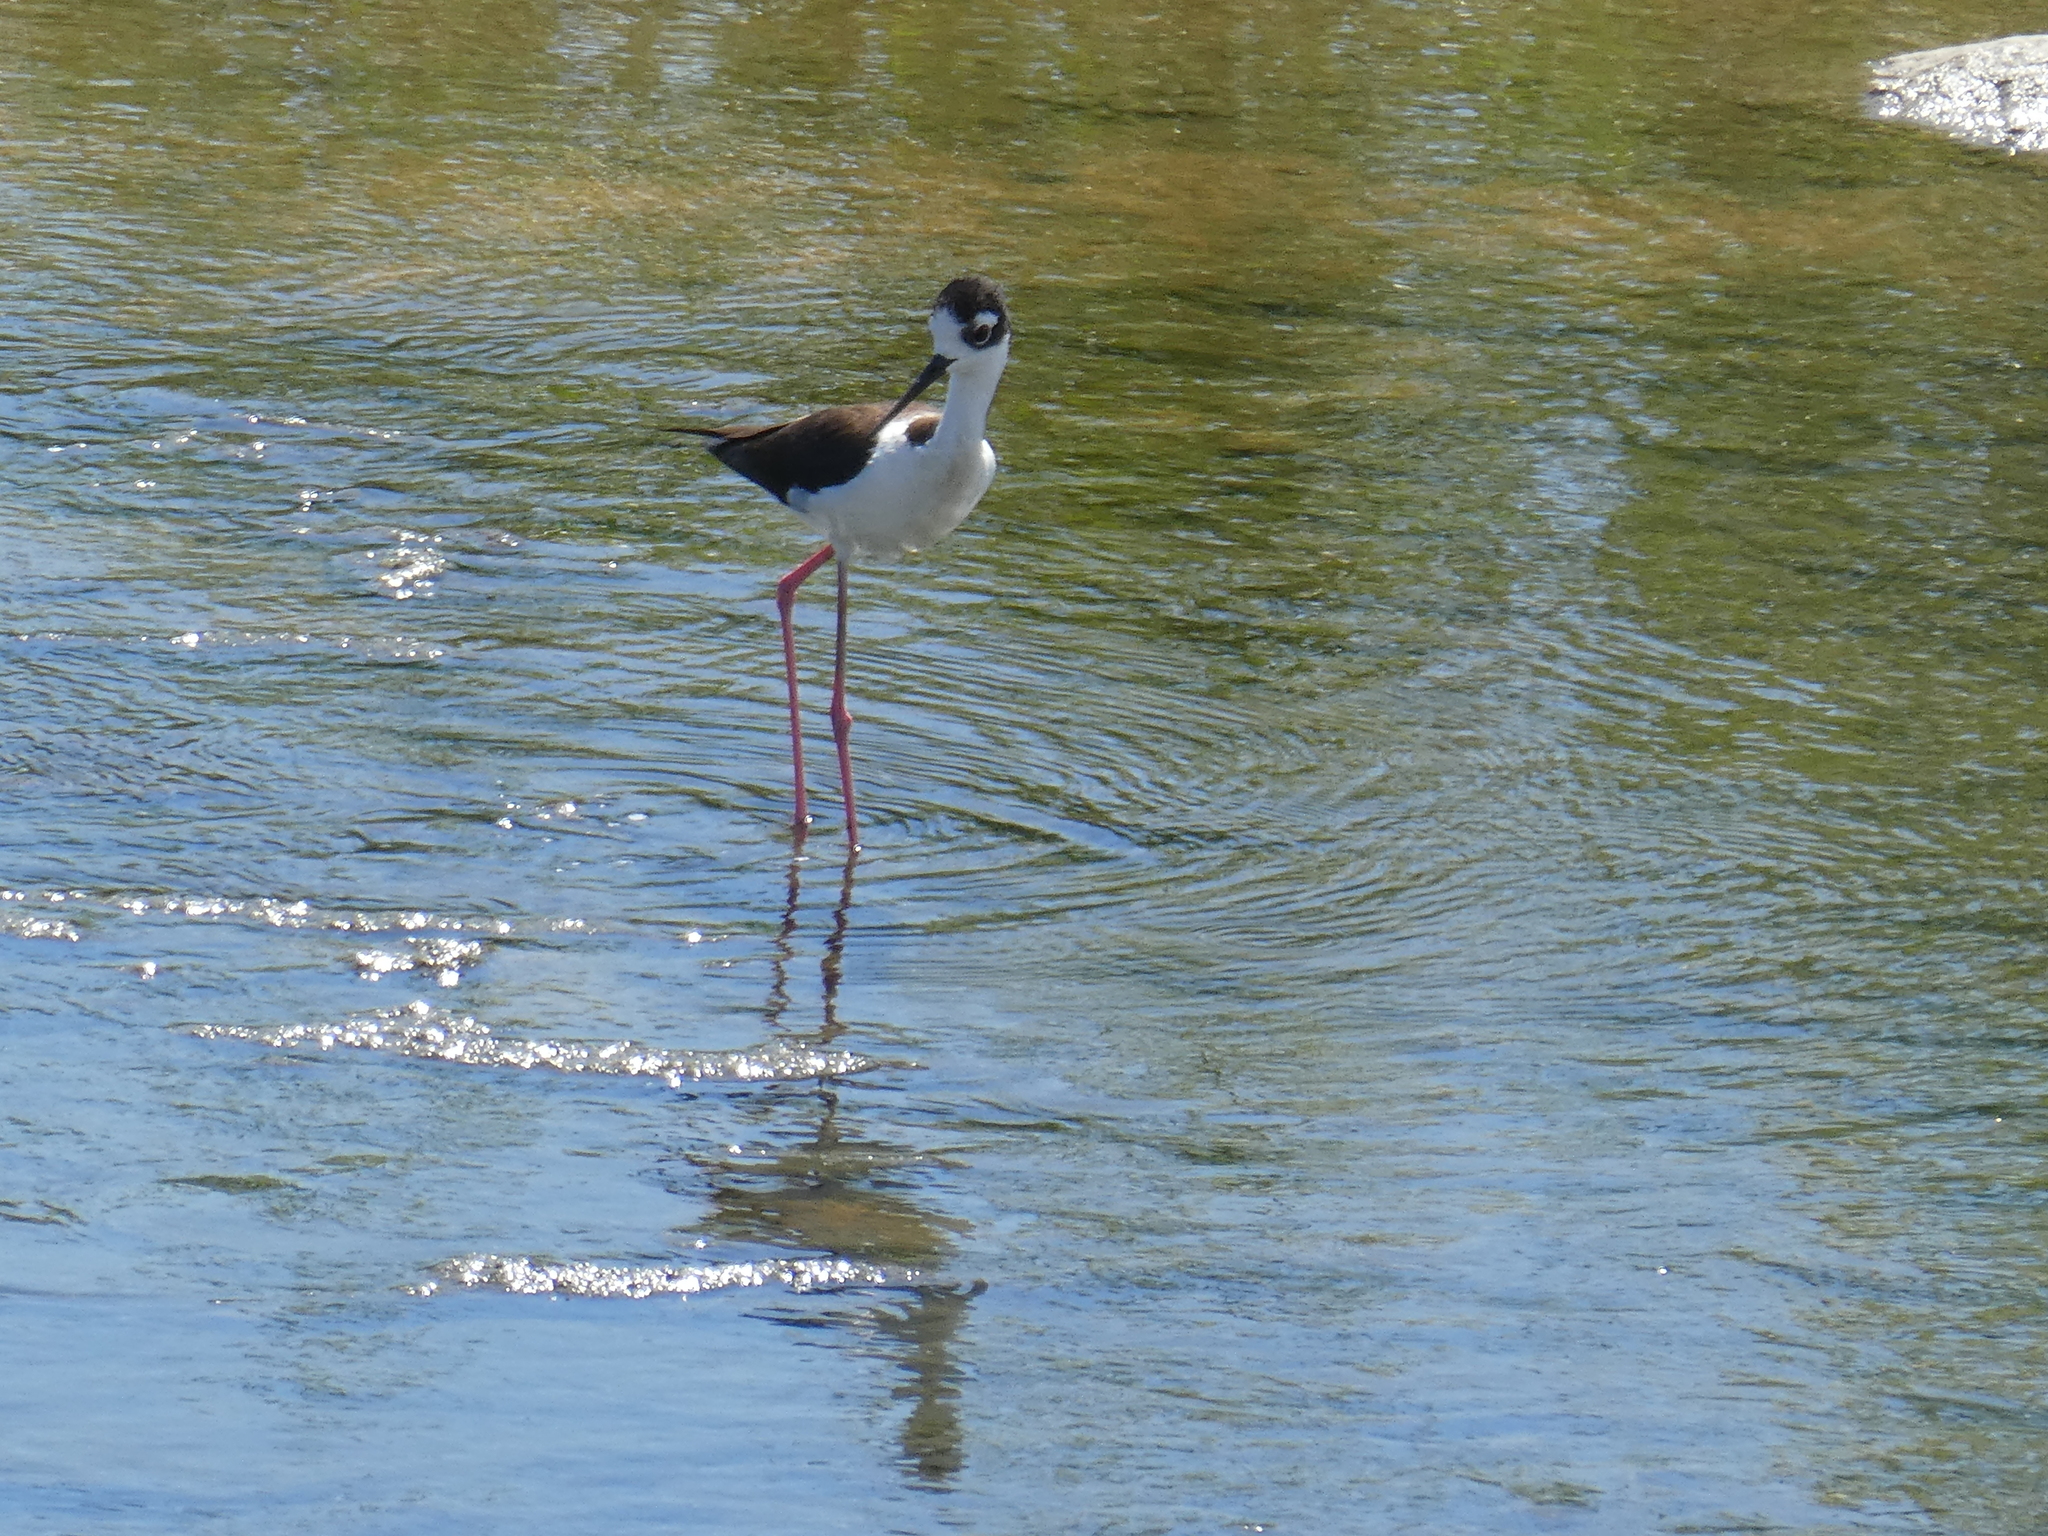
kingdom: Animalia
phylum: Chordata
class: Aves
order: Charadriiformes
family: Recurvirostridae
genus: Himantopus
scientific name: Himantopus mexicanus
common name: Black-necked stilt
